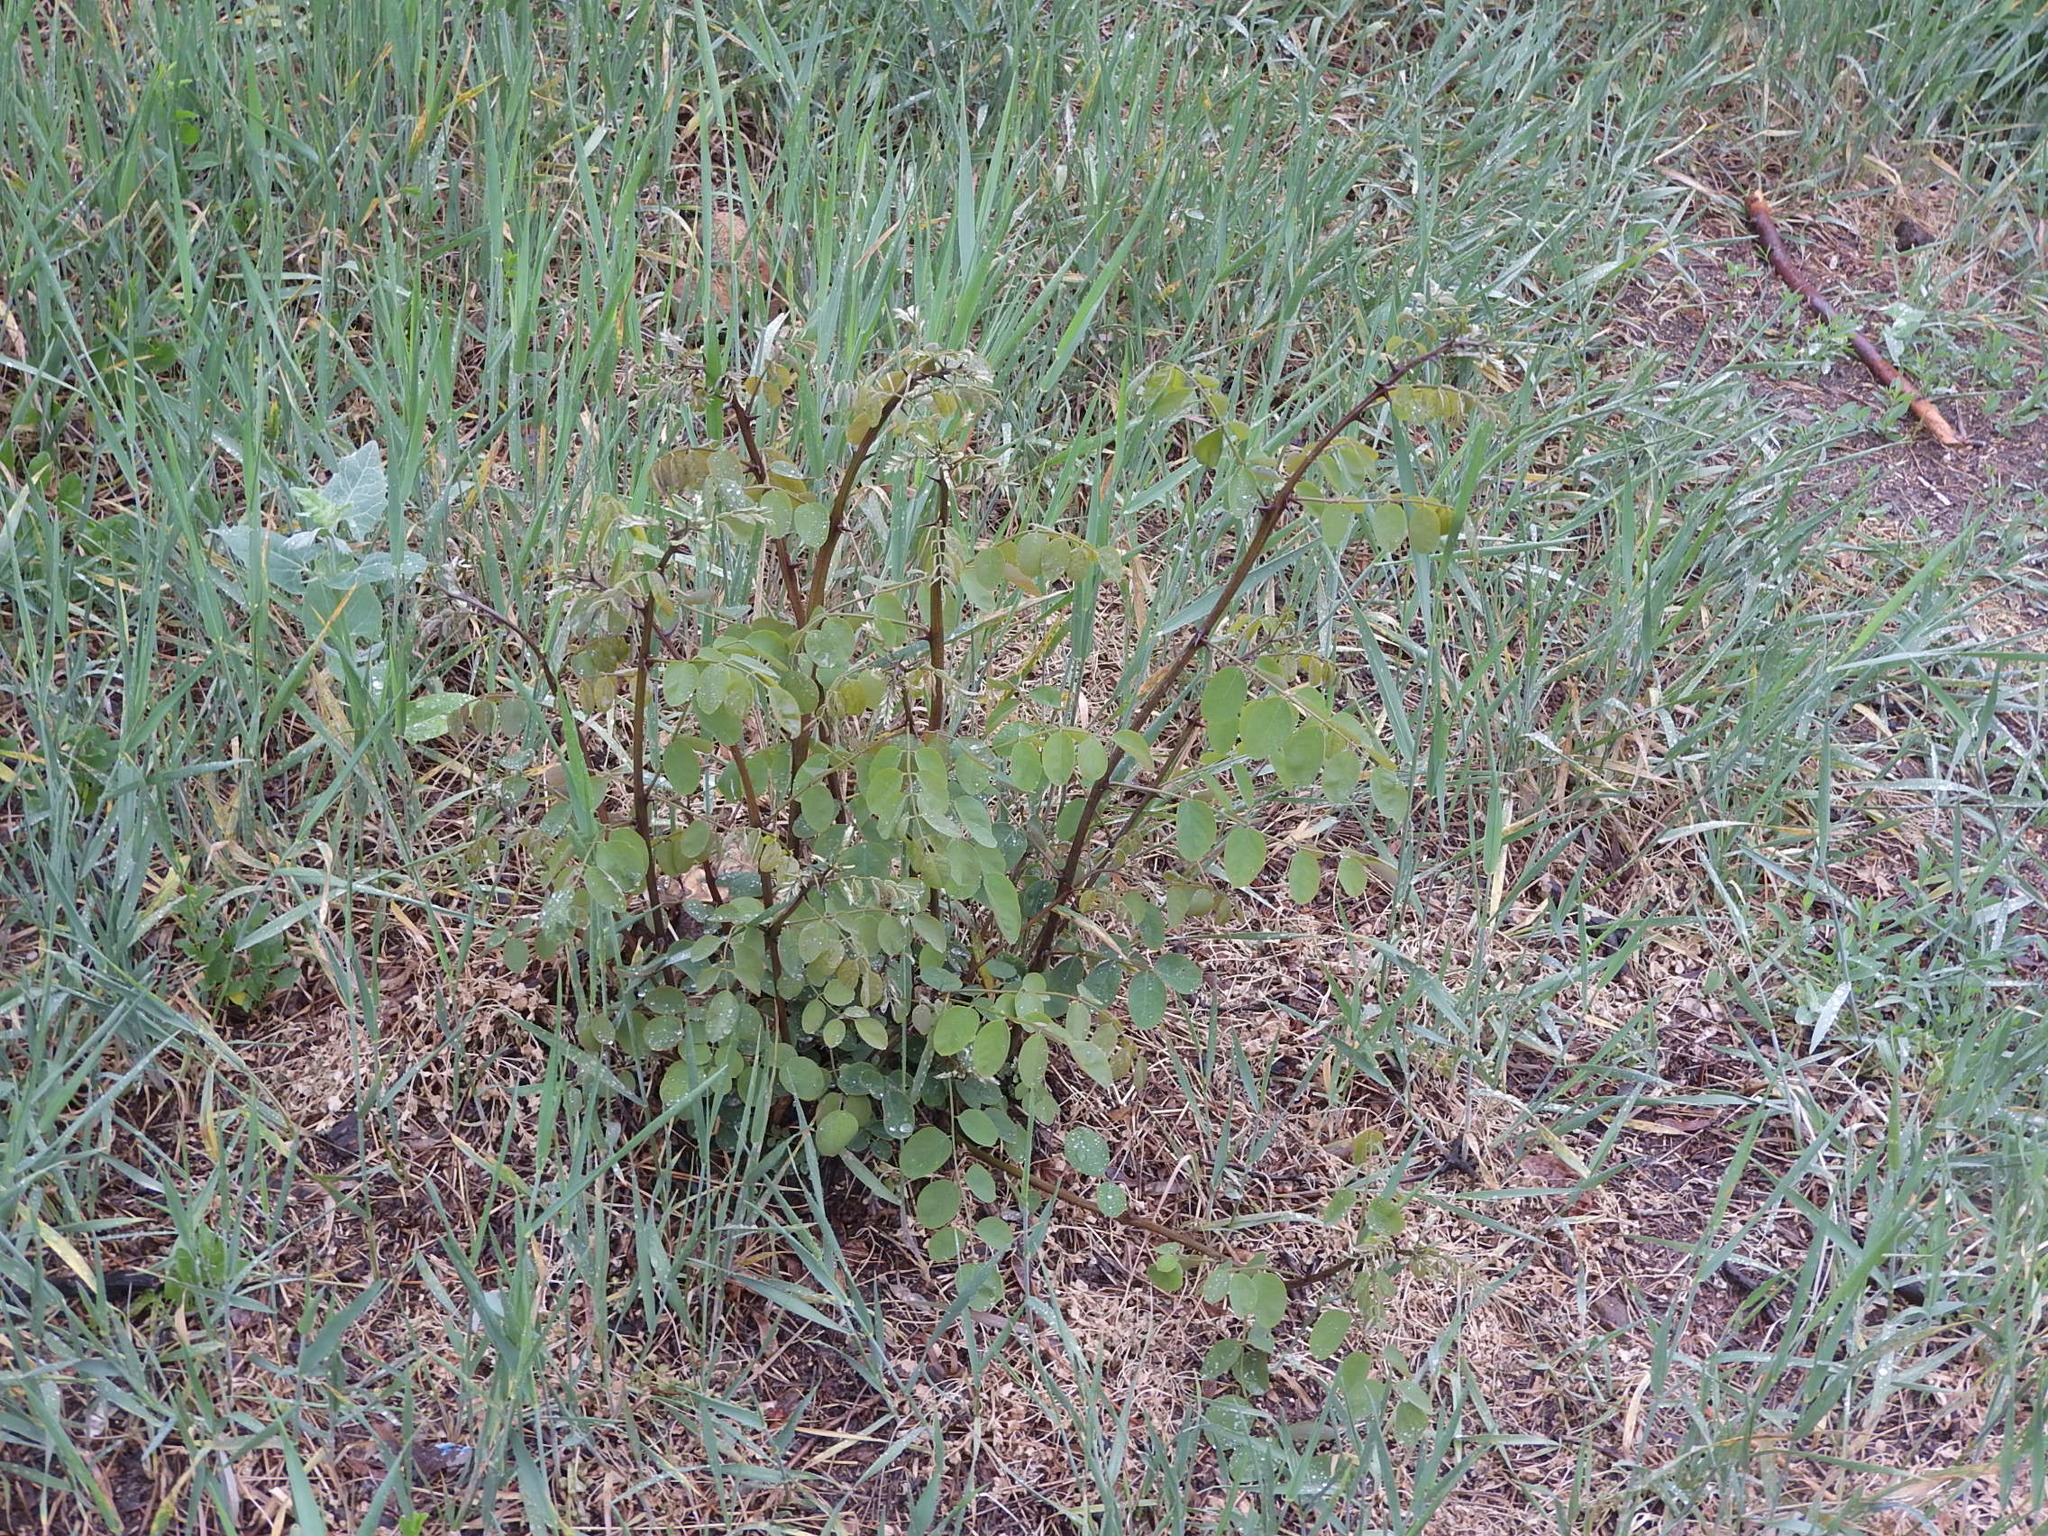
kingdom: Plantae
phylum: Tracheophyta
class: Magnoliopsida
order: Fabales
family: Fabaceae
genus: Robinia
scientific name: Robinia pseudoacacia
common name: Black locust
